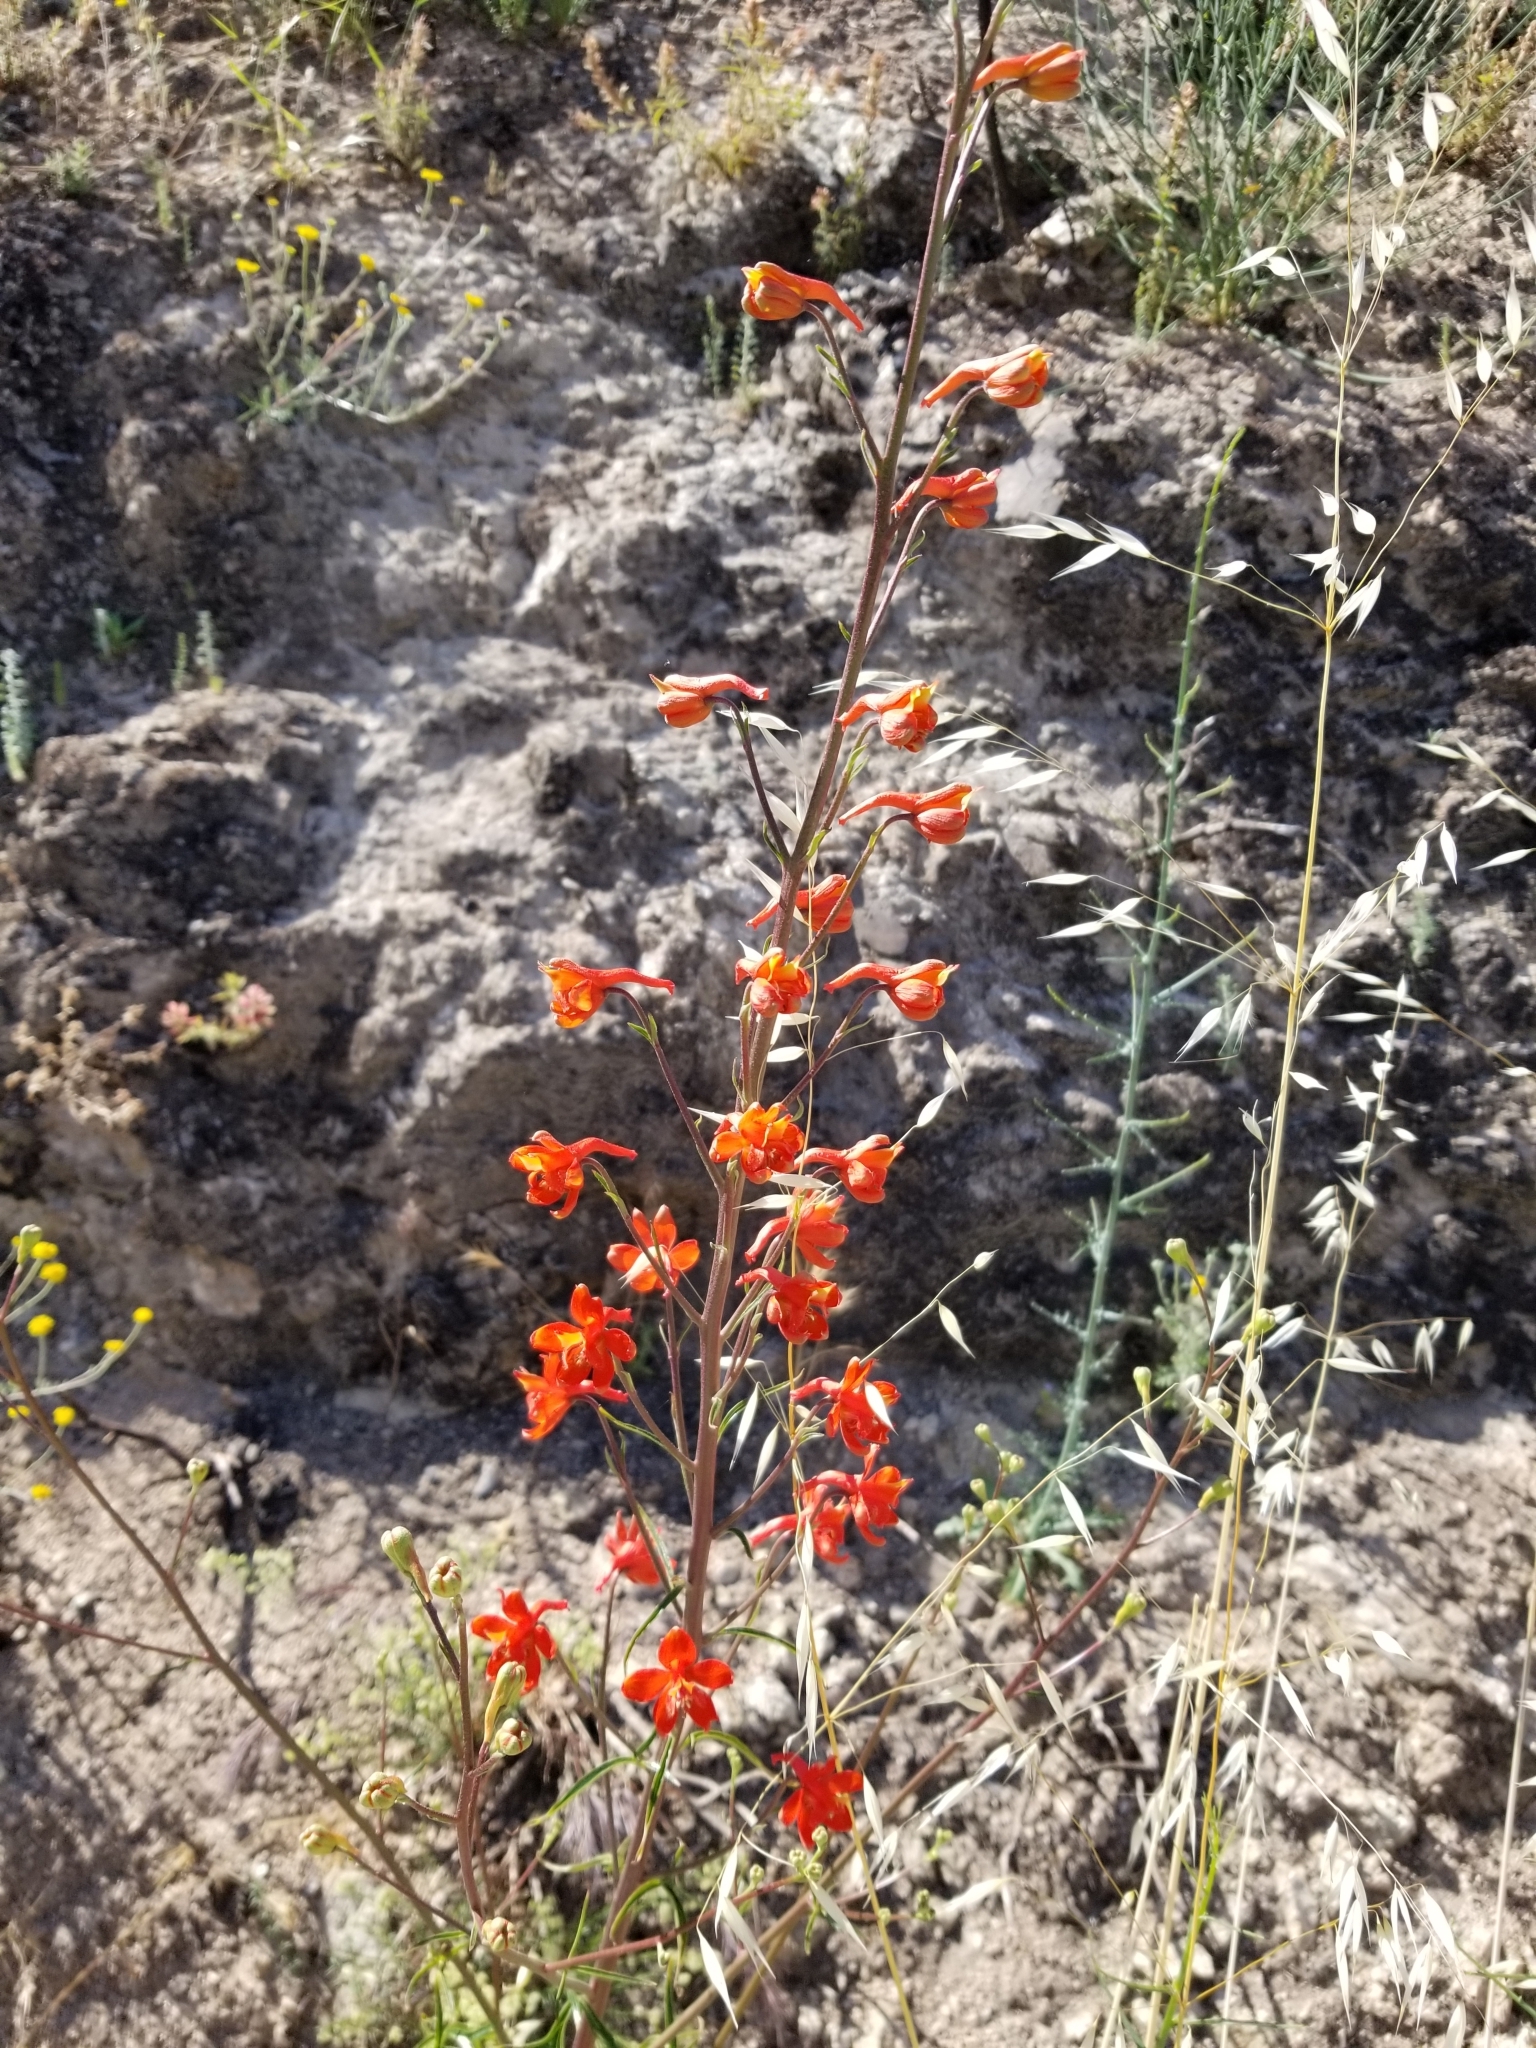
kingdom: Plantae
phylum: Tracheophyta
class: Magnoliopsida
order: Ranunculales
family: Ranunculaceae
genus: Delphinium
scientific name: Delphinium cardinale
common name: Scarlet larkspur
